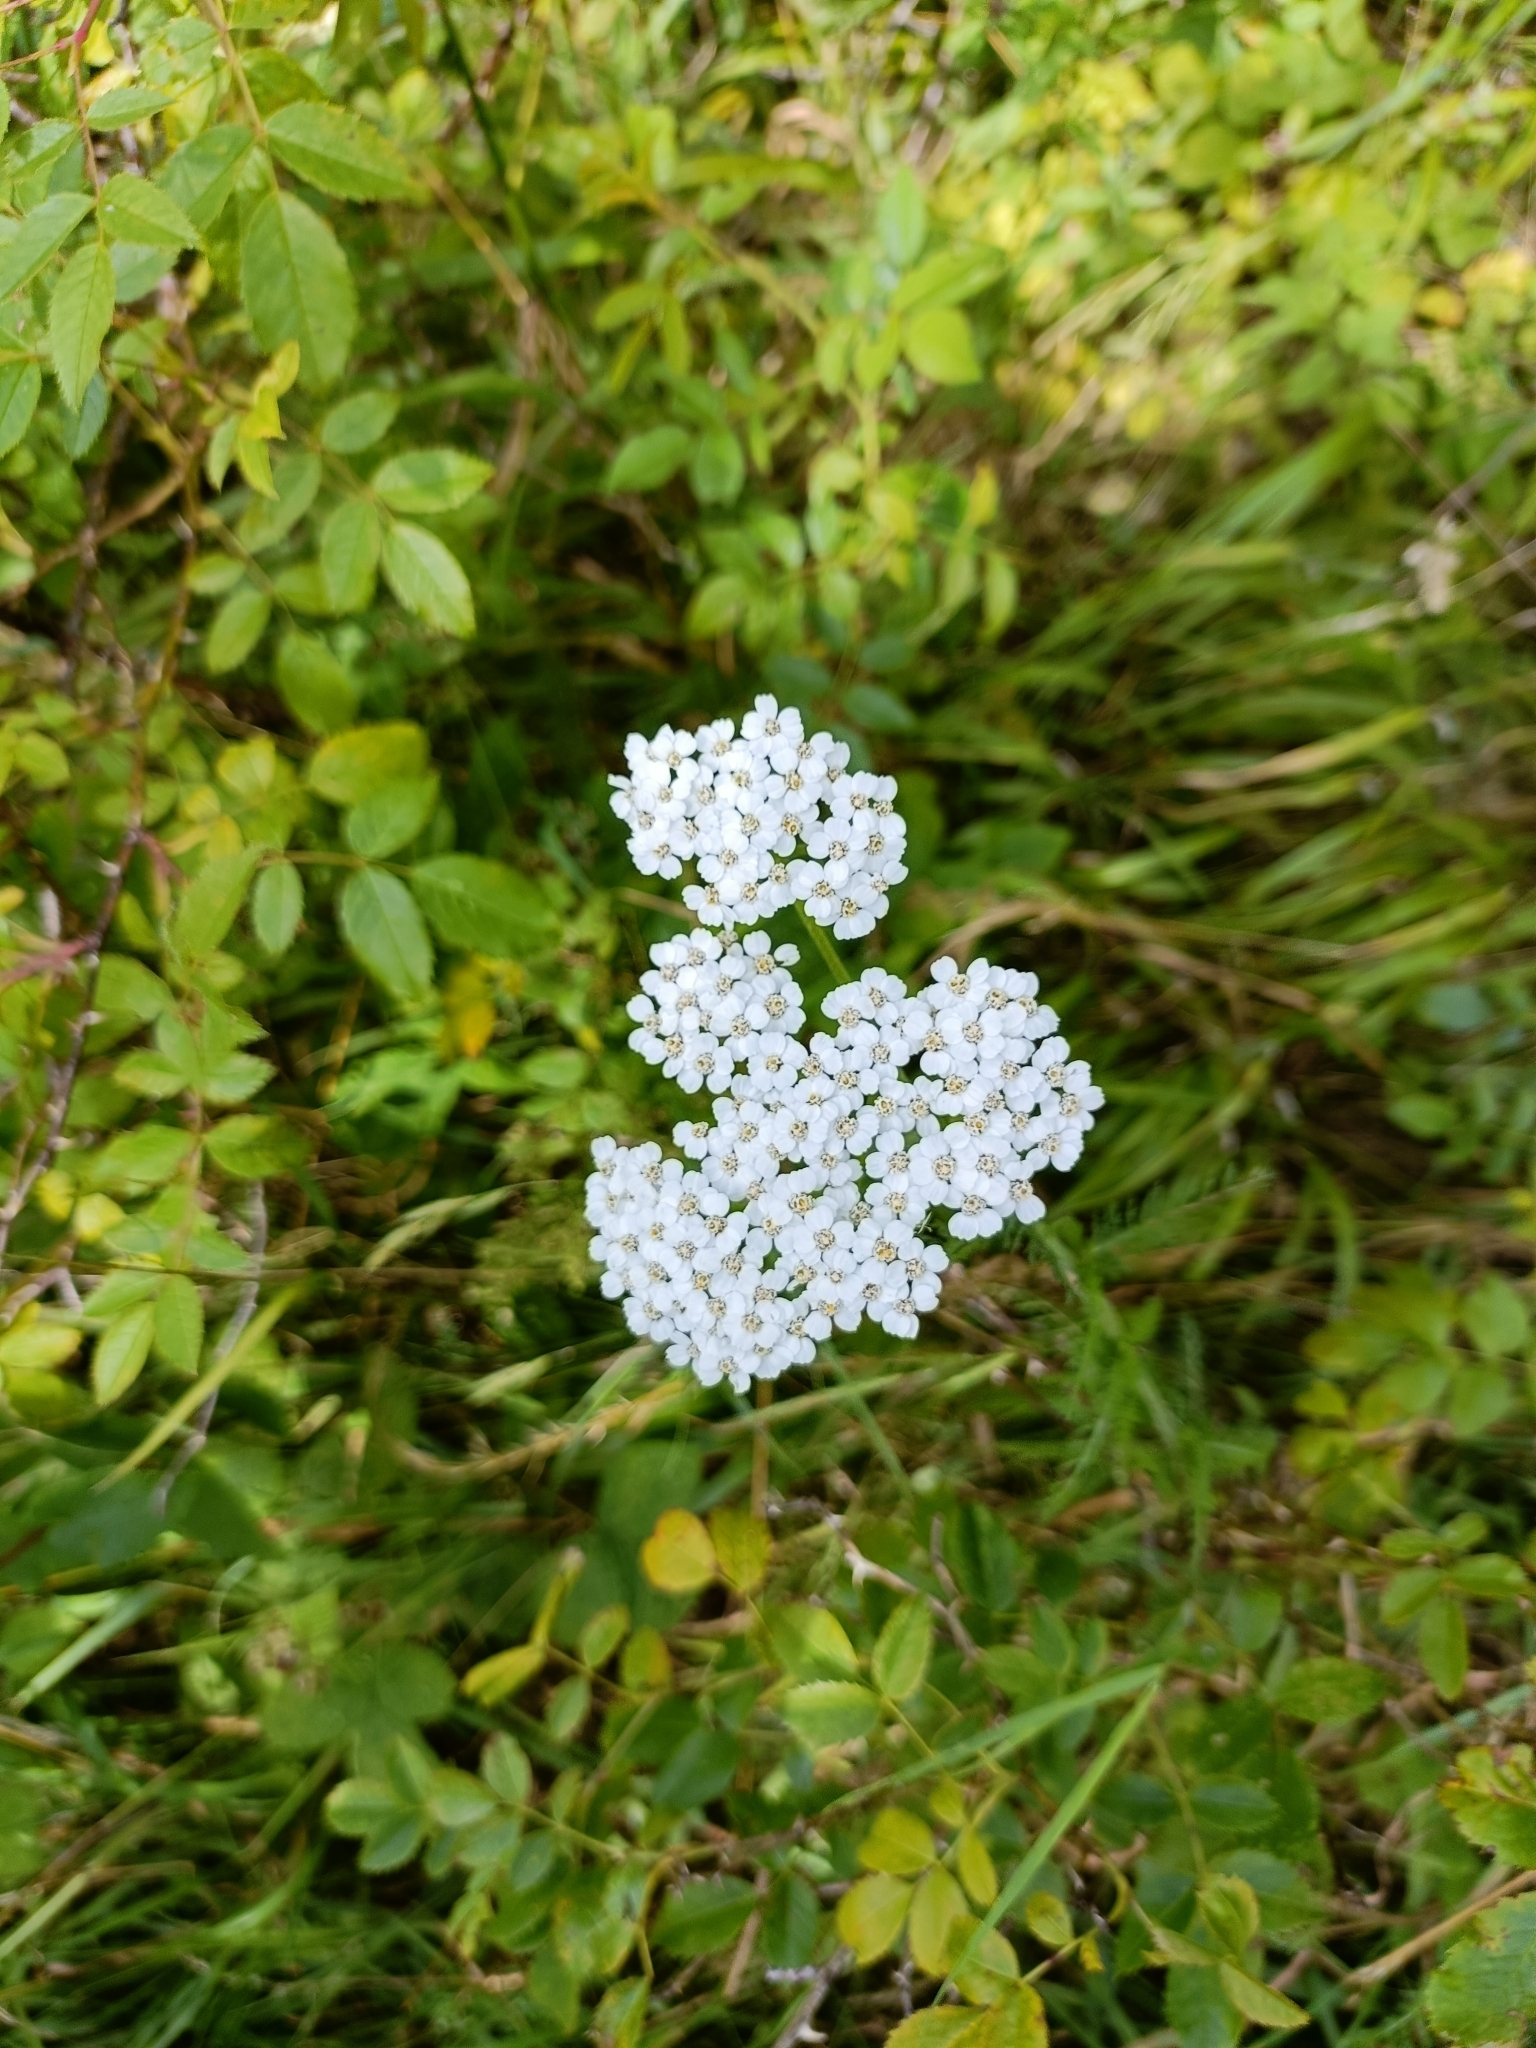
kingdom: Plantae
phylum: Tracheophyta
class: Magnoliopsida
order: Asterales
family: Asteraceae
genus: Achillea
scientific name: Achillea millefolium
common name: Yarrow
